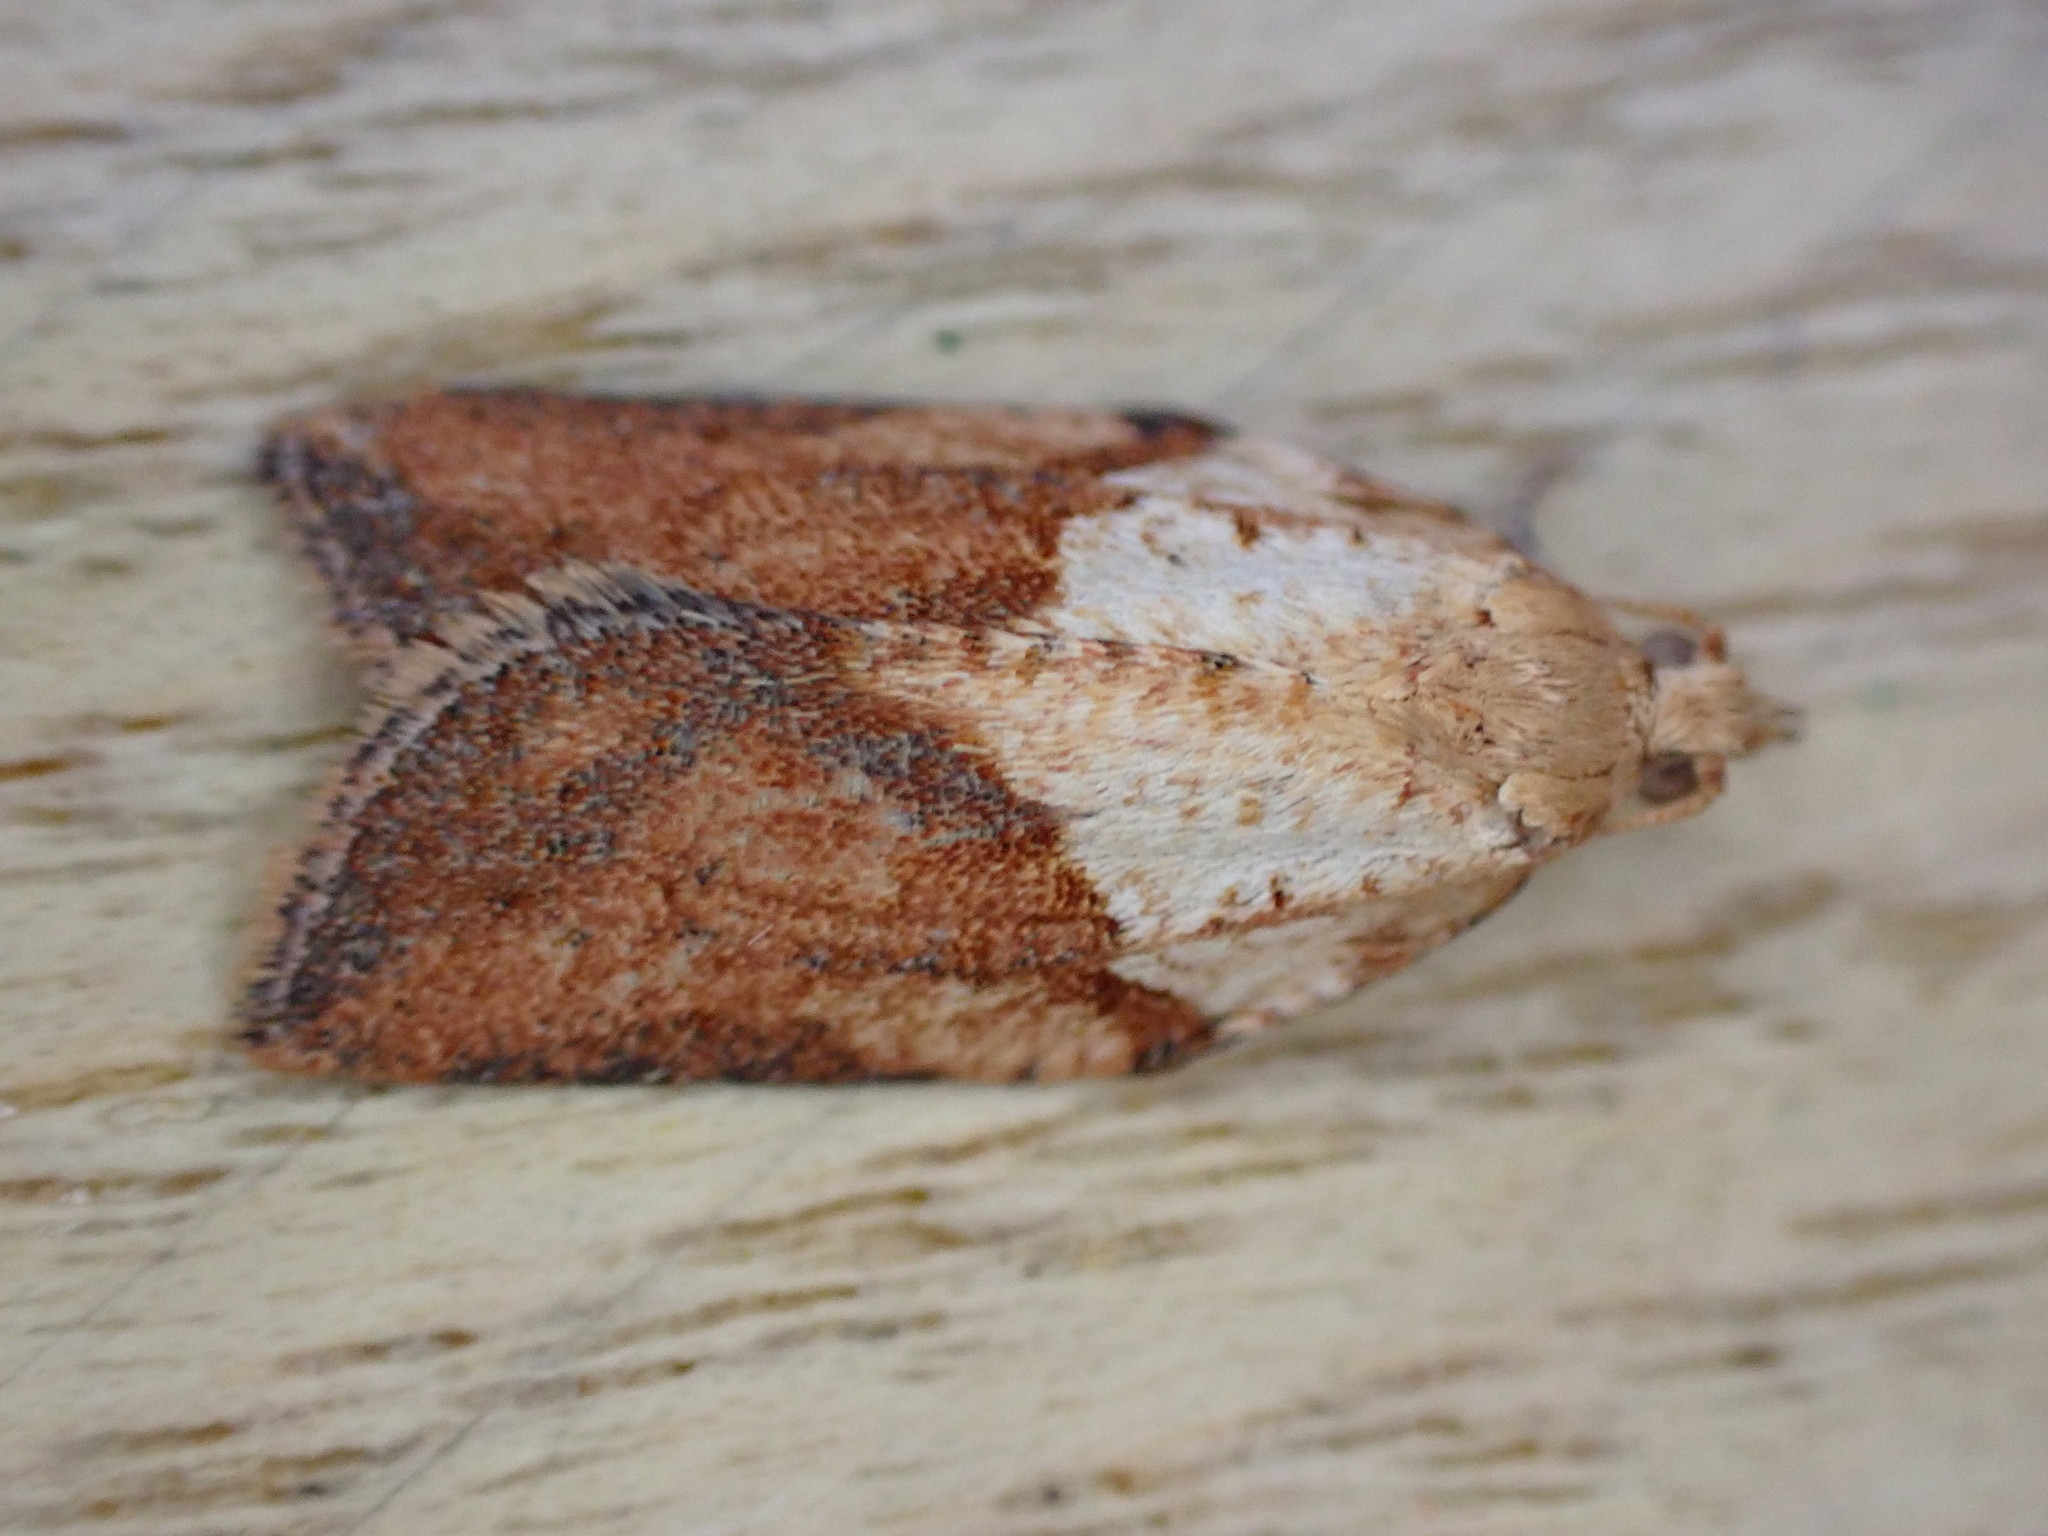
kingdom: Animalia
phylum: Arthropoda
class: Insecta
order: Lepidoptera
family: Tortricidae
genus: Epiphyas
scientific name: Epiphyas postvittana
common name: Light brown apple moth
